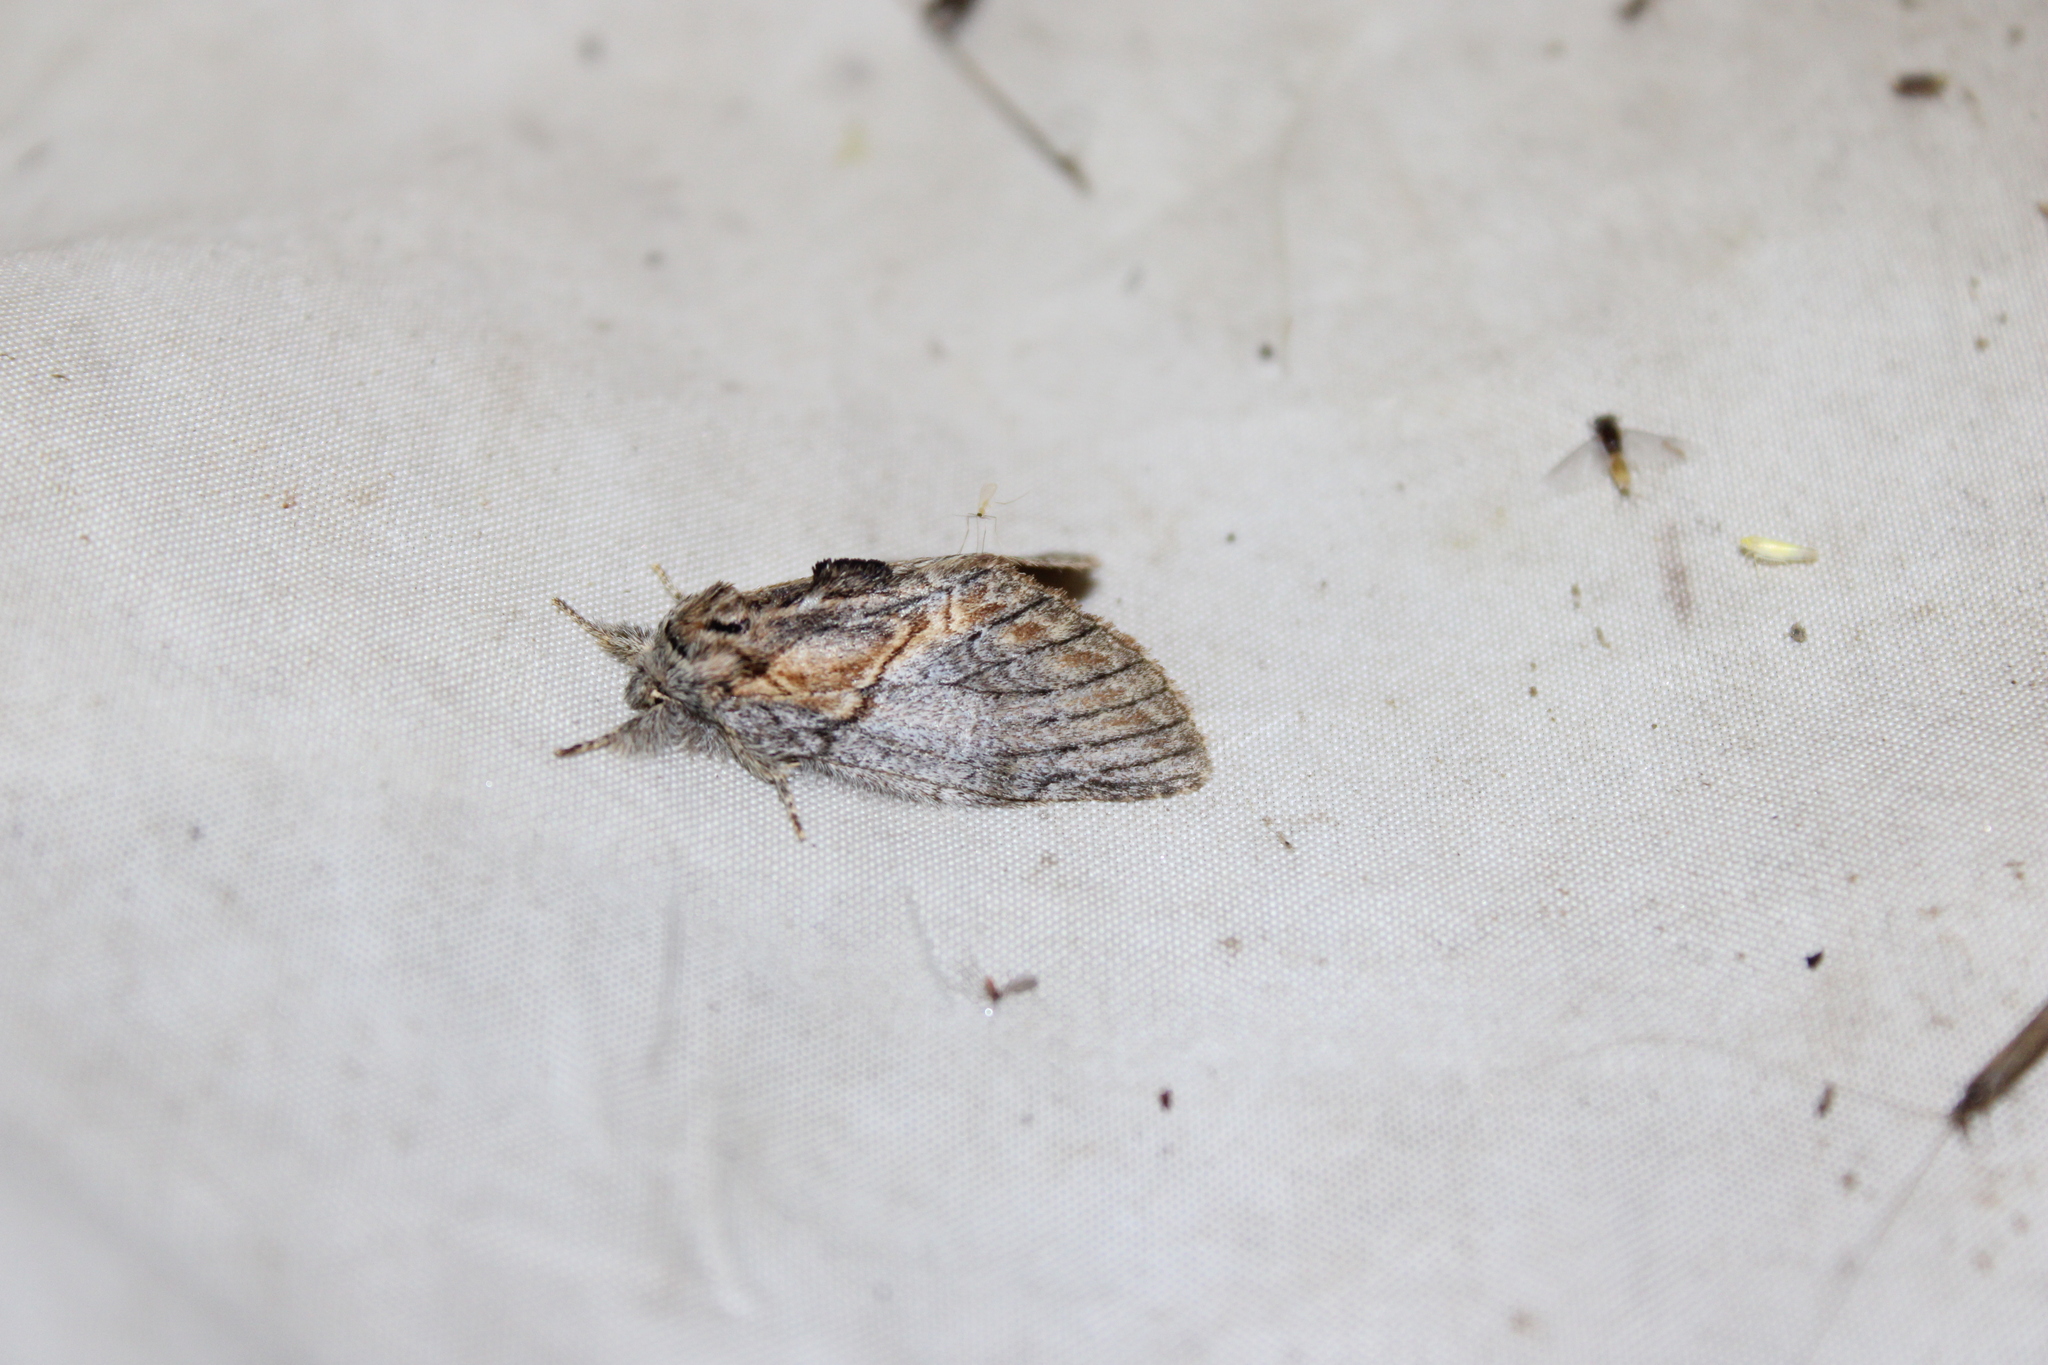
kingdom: Animalia
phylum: Arthropoda
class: Insecta
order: Lepidoptera
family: Notodontidae
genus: Peridea
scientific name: Peridea basitriens
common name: Oval-based prominent
